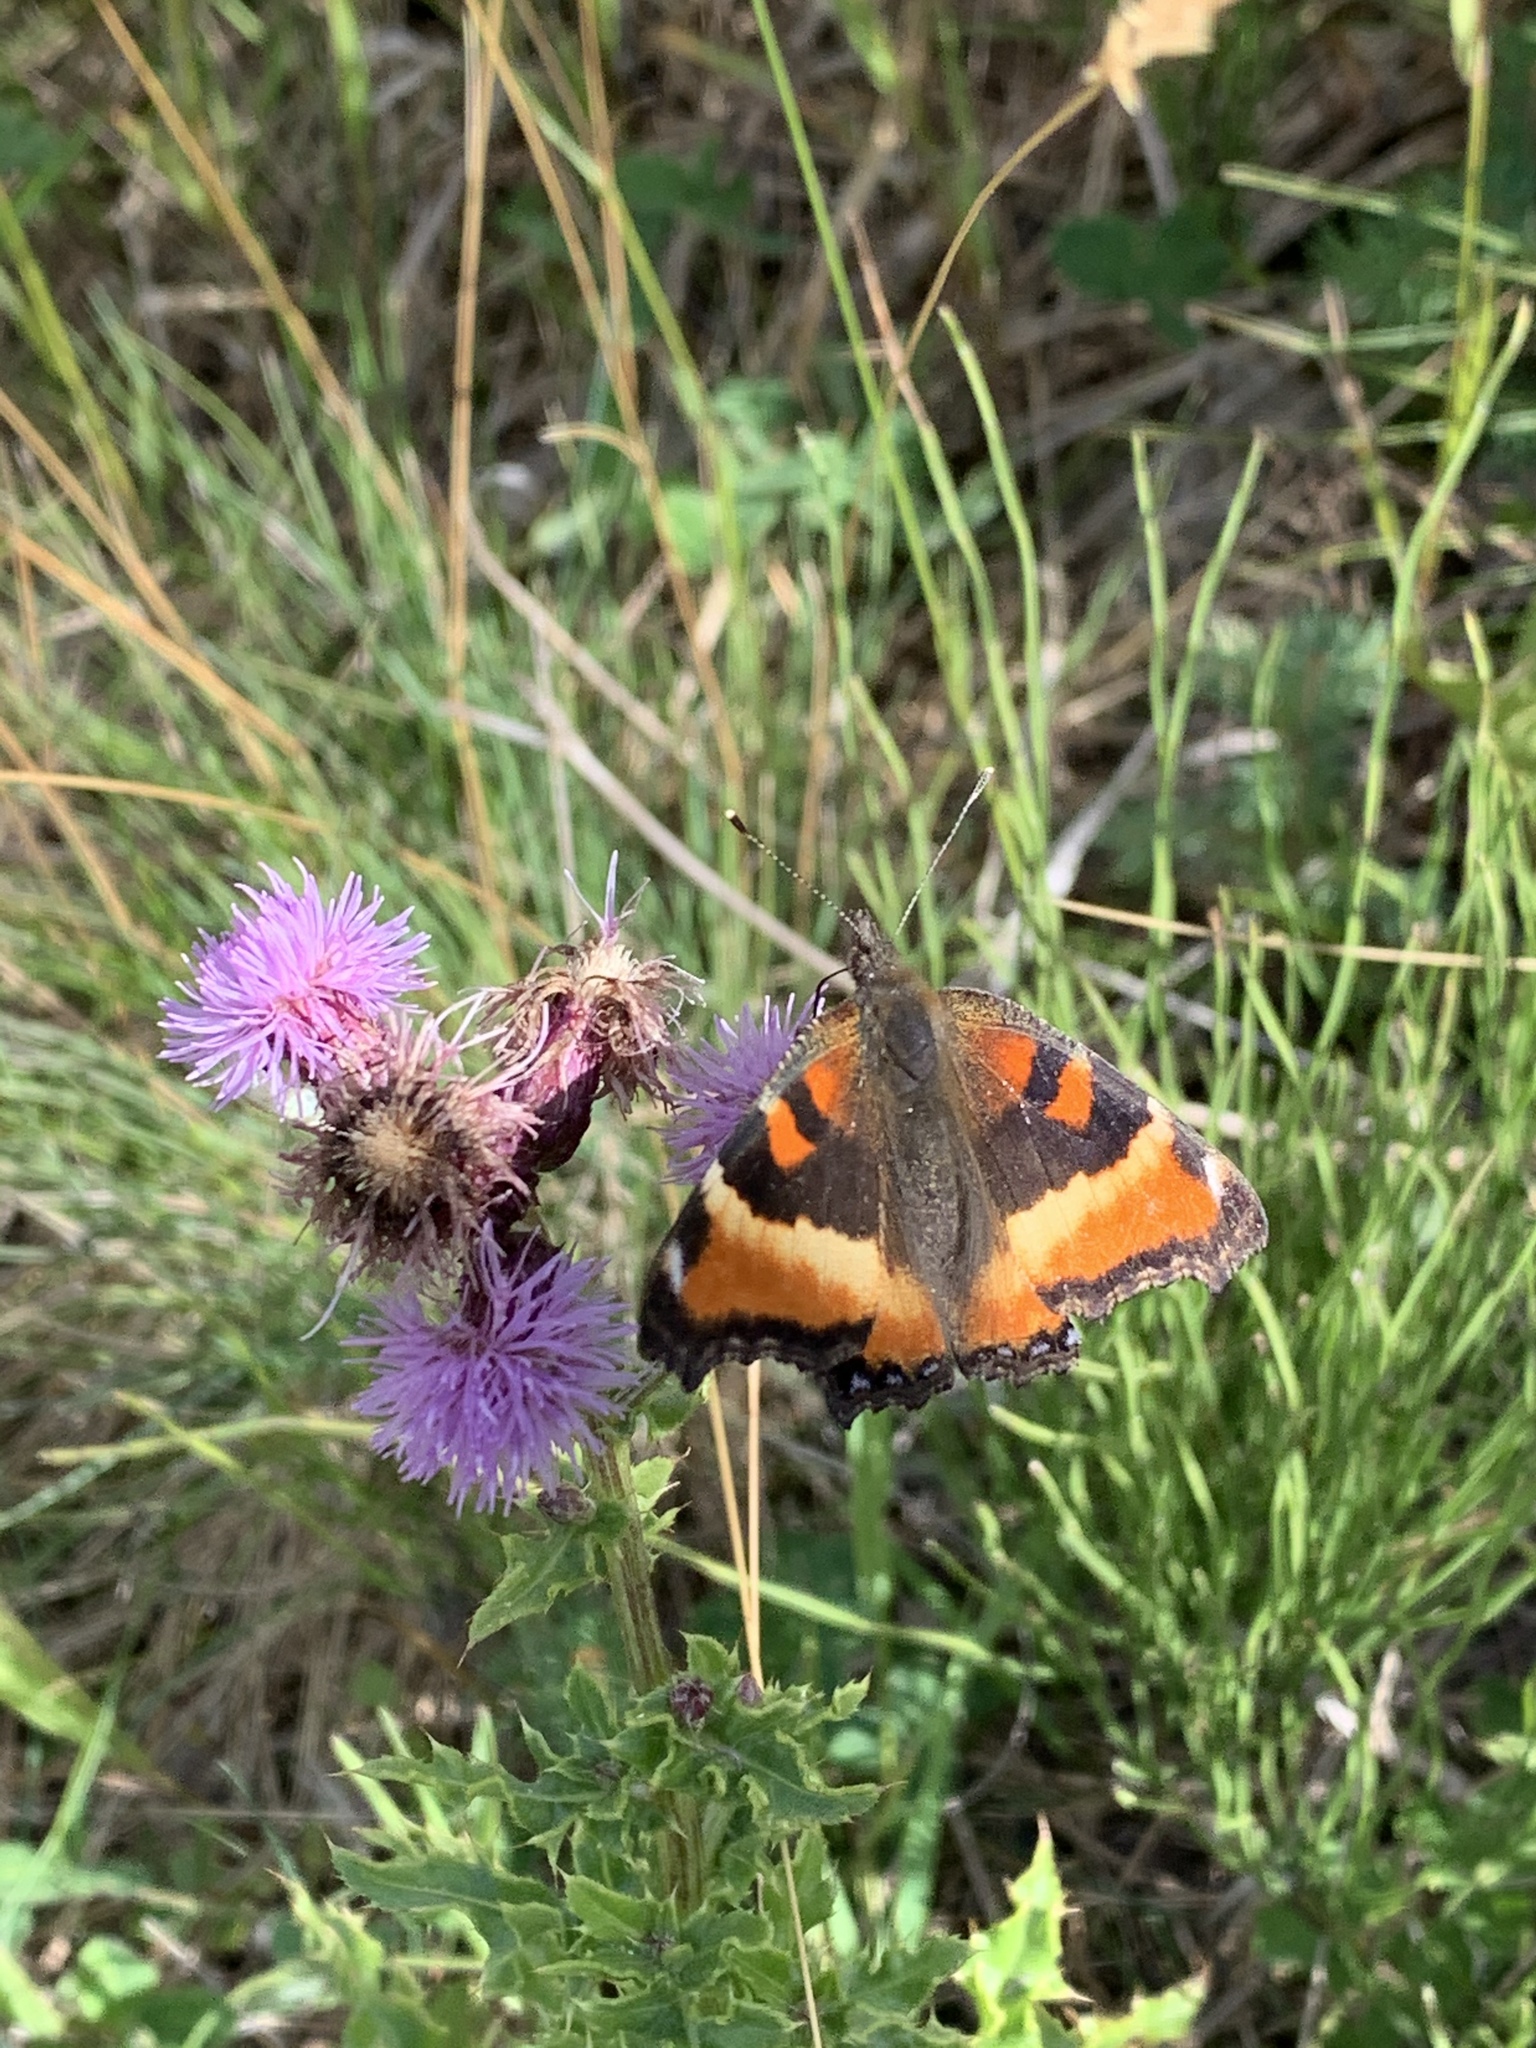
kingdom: Animalia
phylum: Arthropoda
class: Insecta
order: Lepidoptera
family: Nymphalidae
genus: Aglais
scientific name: Aglais milberti
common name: Milbert's tortoiseshell
